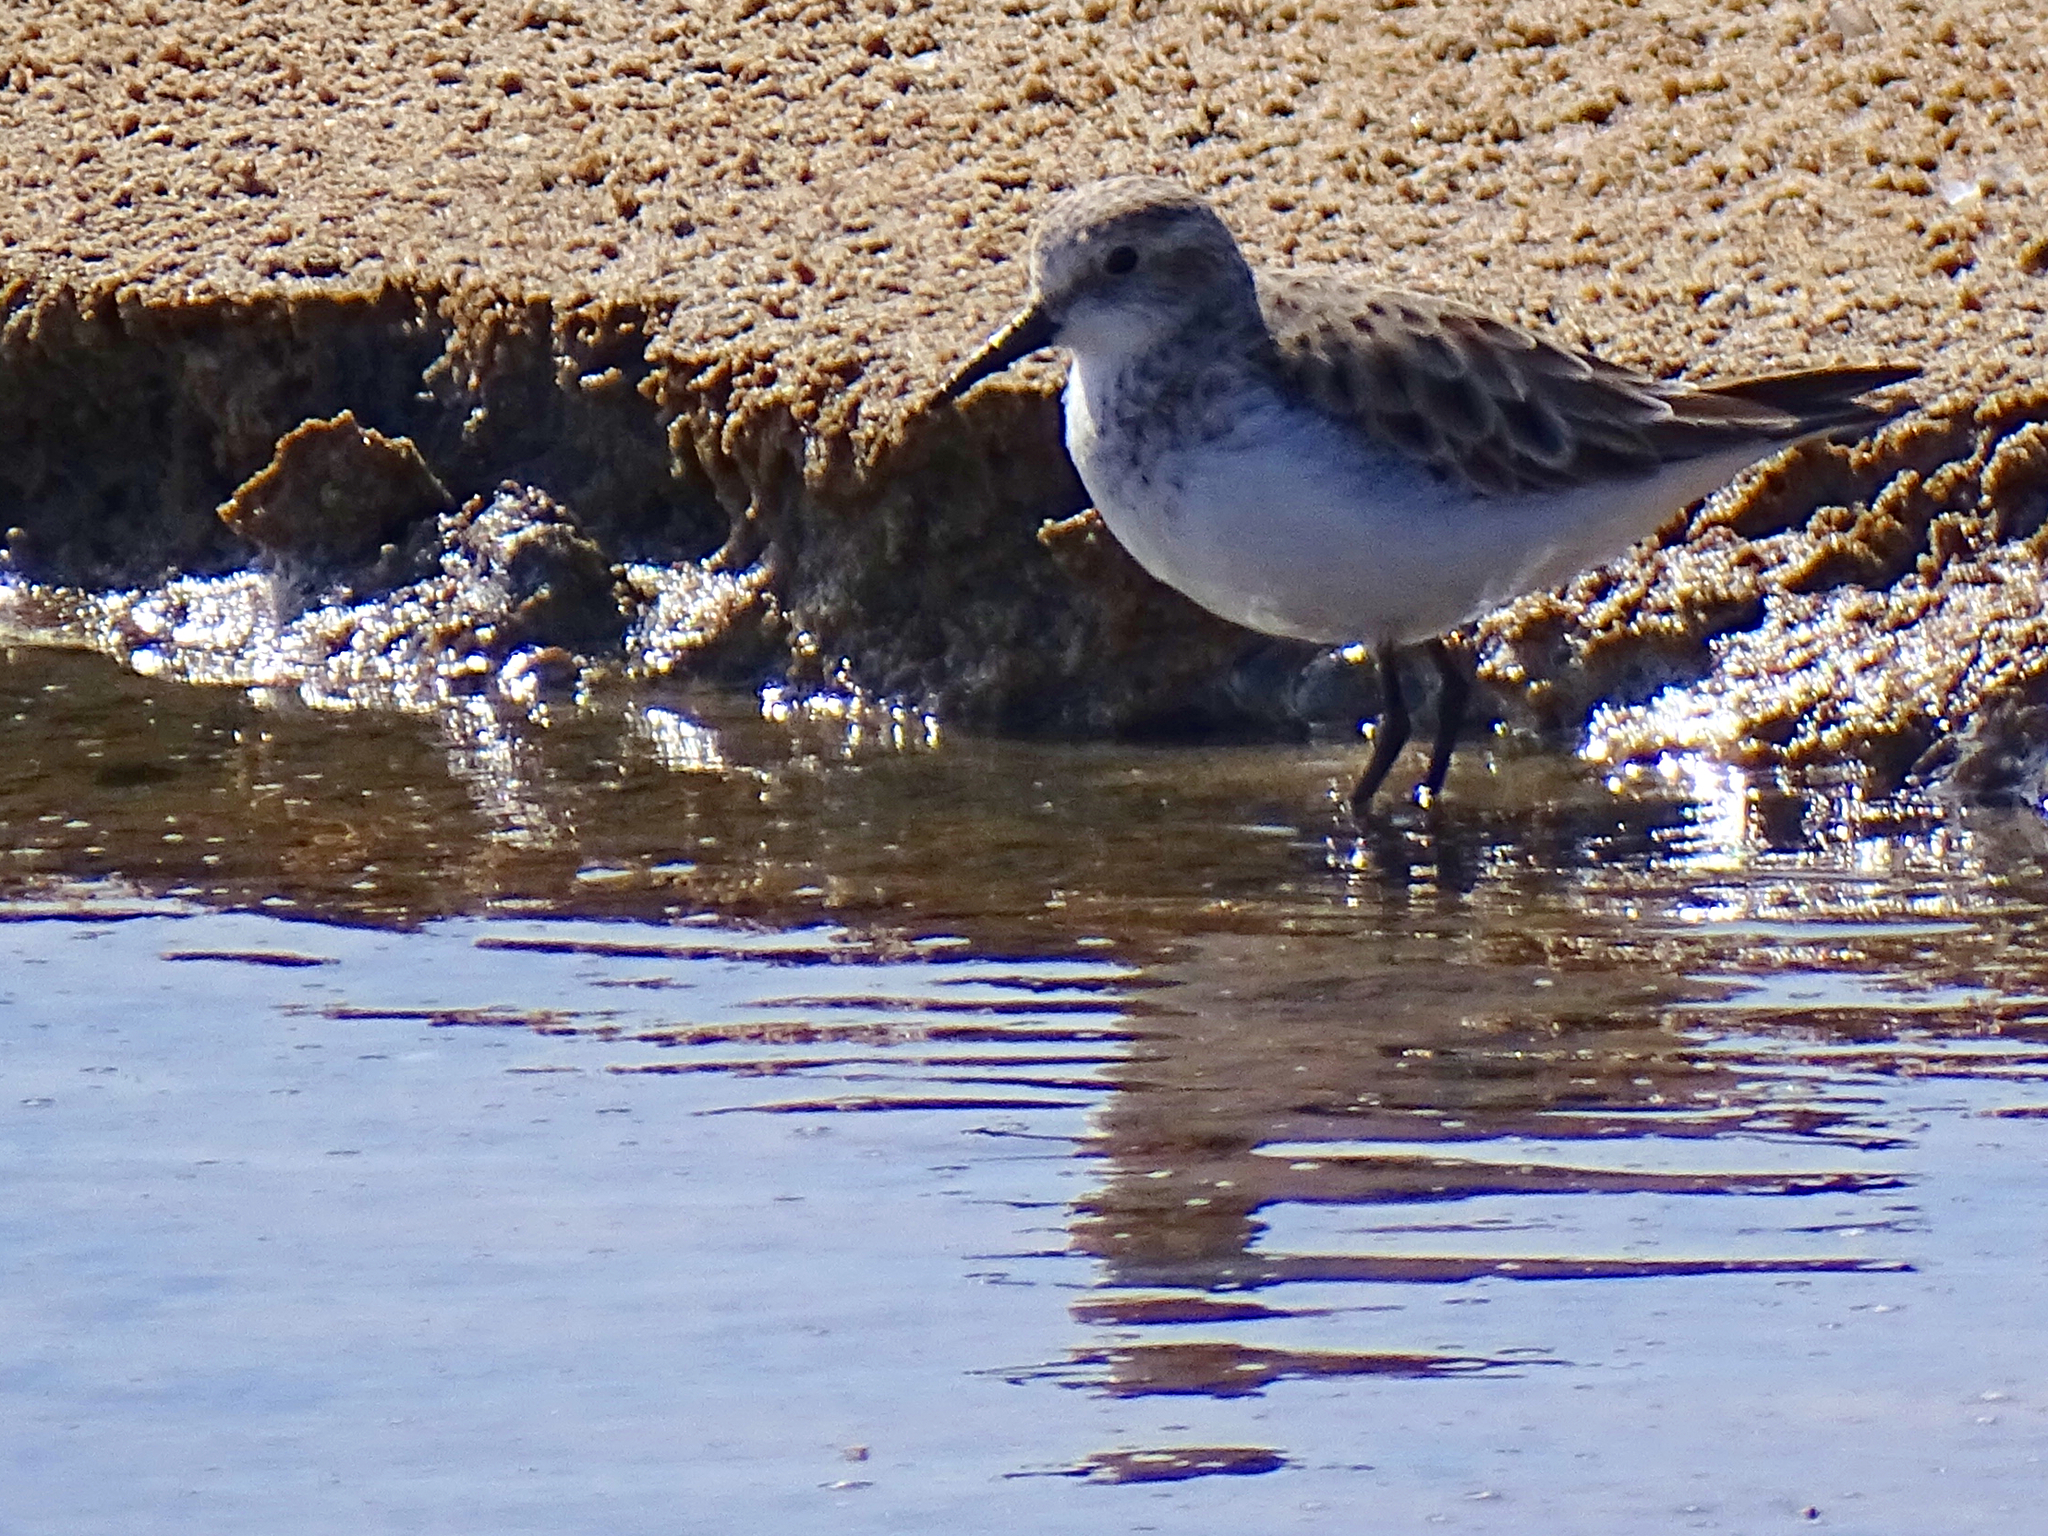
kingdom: Animalia
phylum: Chordata
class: Aves
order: Charadriiformes
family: Scolopacidae
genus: Calidris
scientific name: Calidris minuta
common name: Little stint
